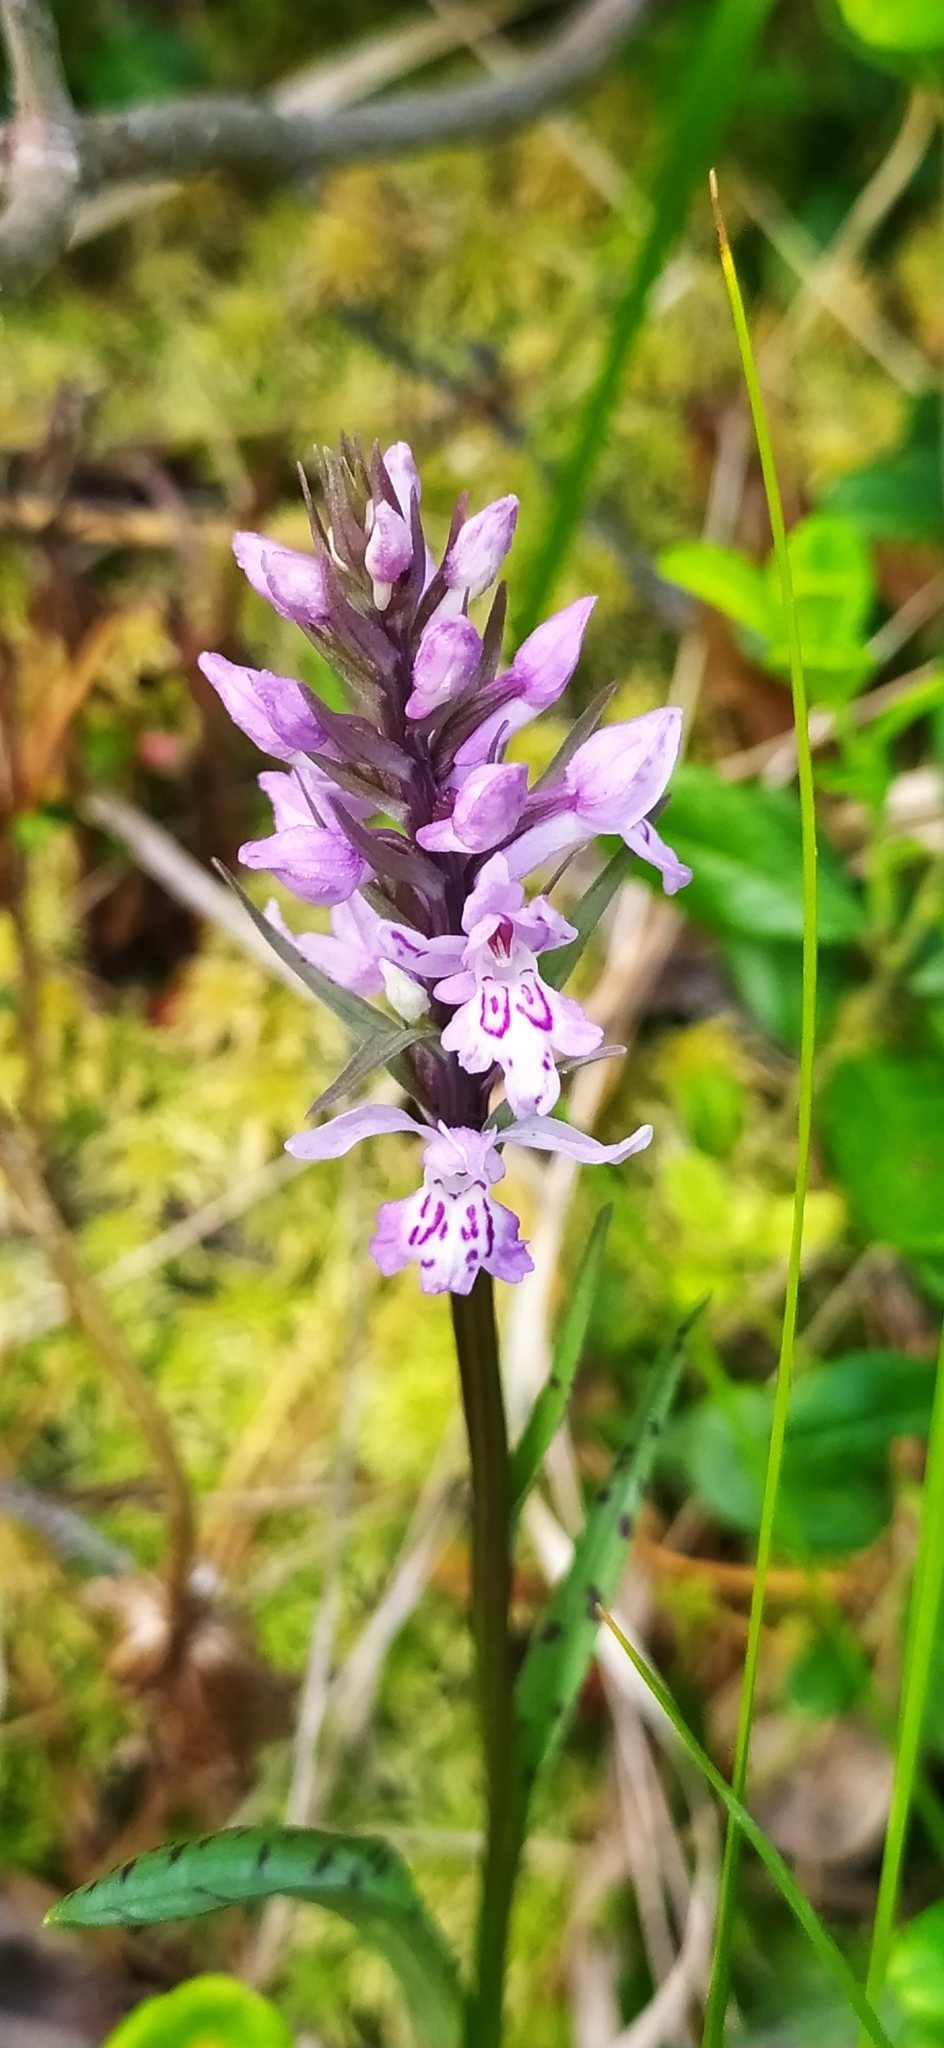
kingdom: Plantae
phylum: Tracheophyta
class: Liliopsida
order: Asparagales
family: Orchidaceae
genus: Dactylorhiza
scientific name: Dactylorhiza maculata
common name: Heath spotted-orchid
